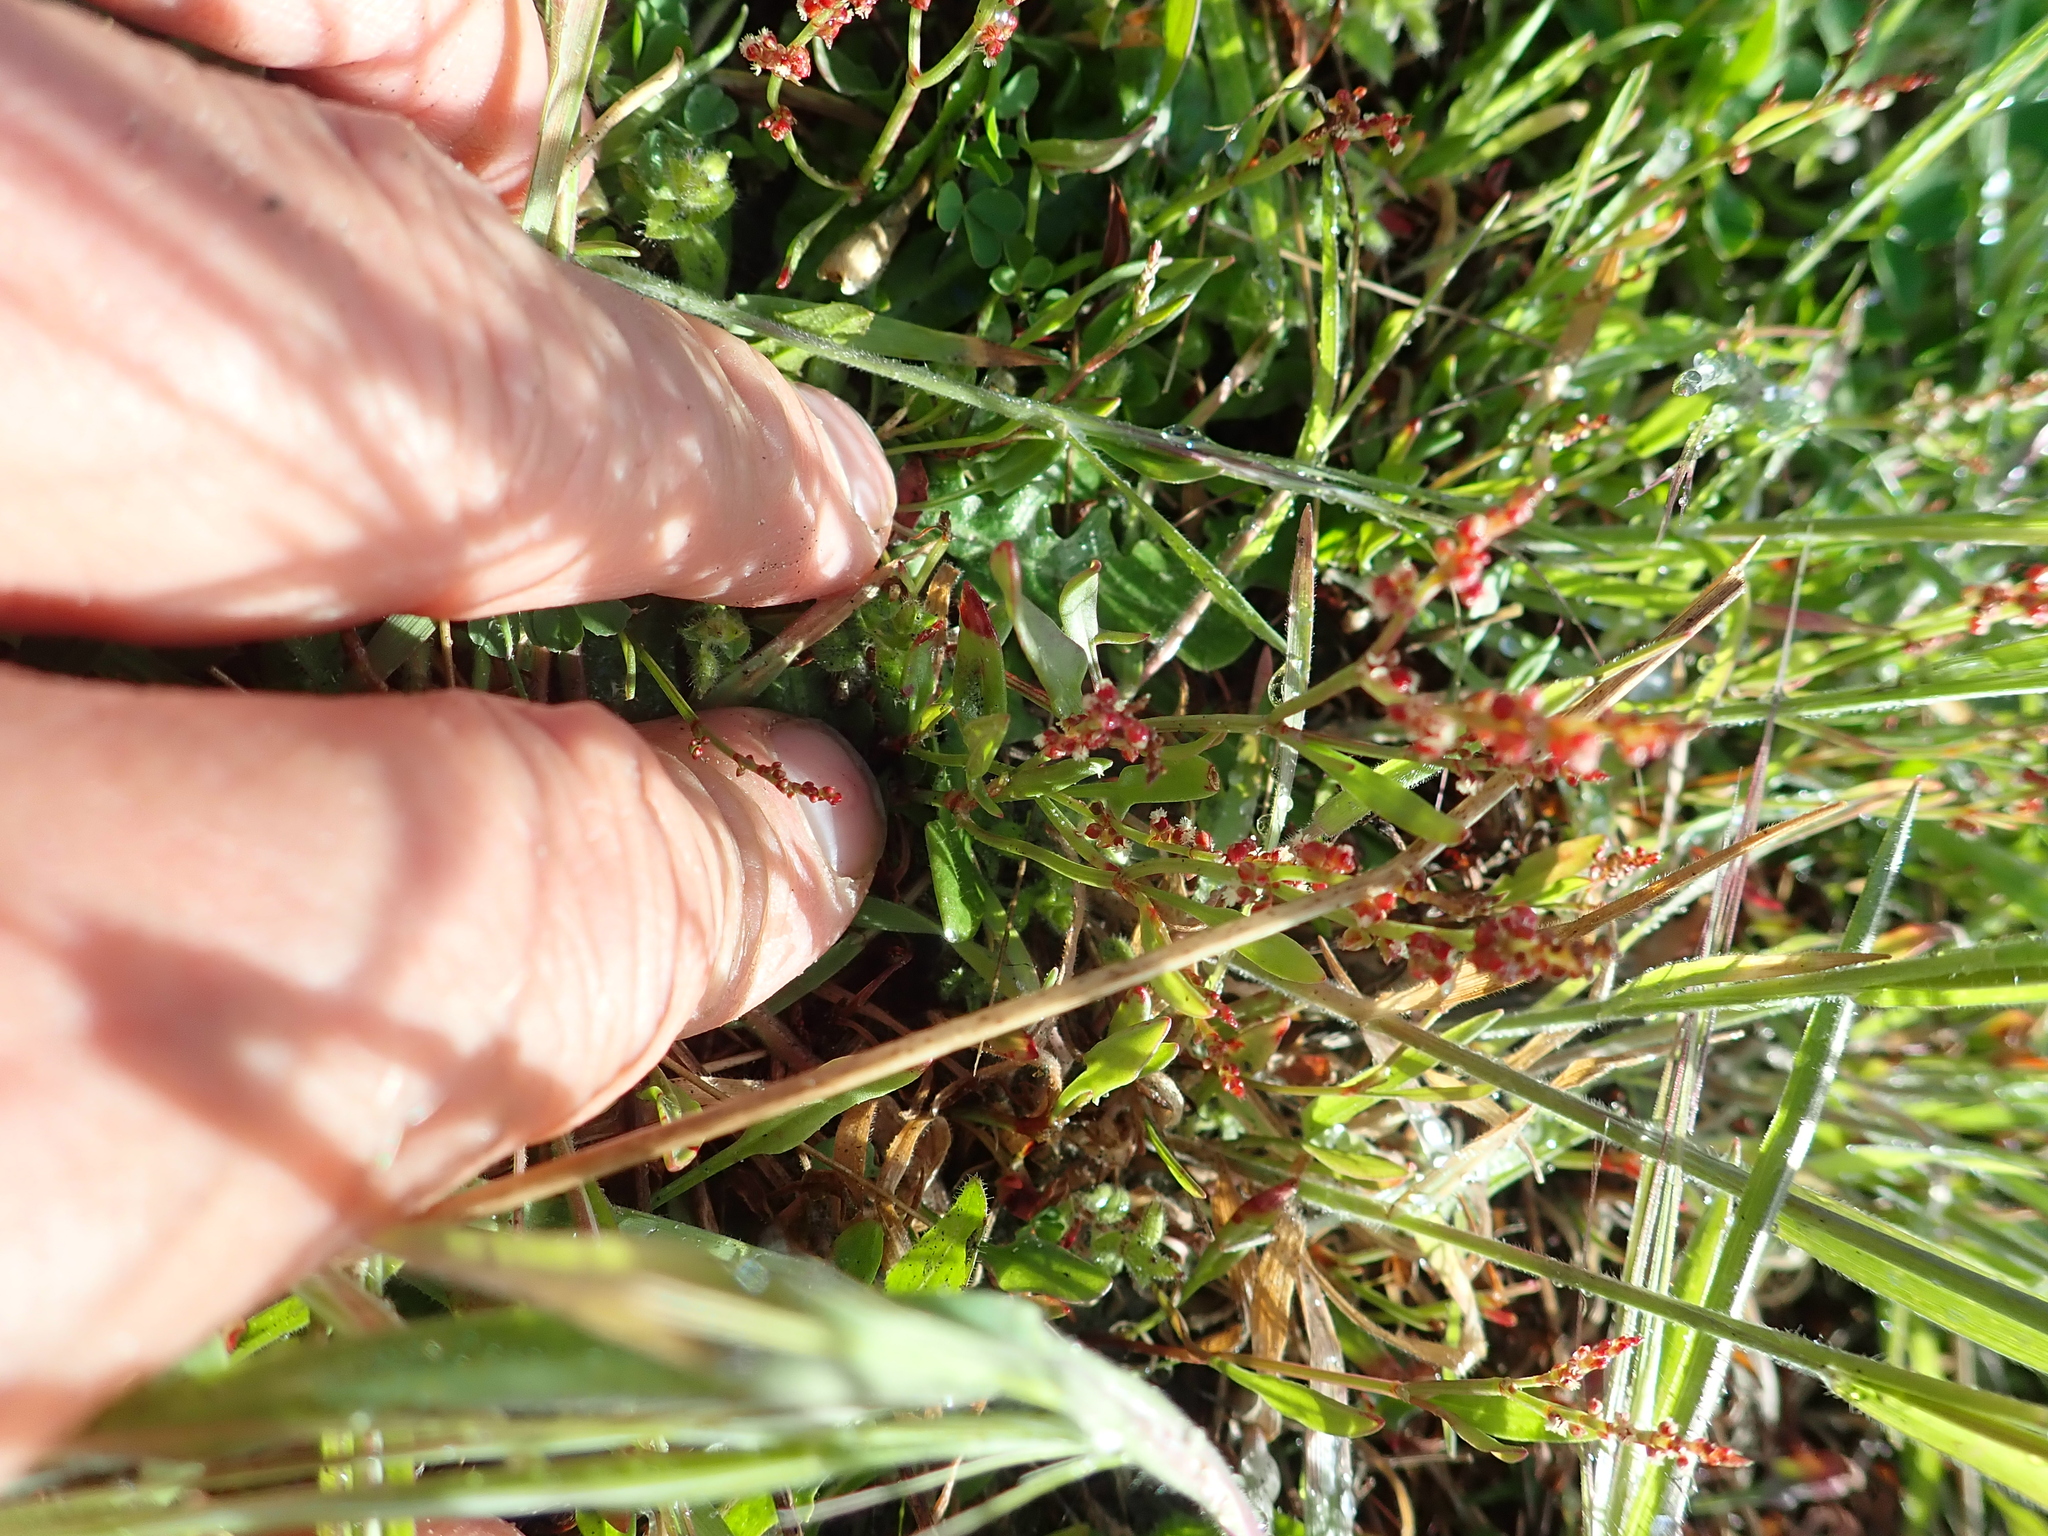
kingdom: Plantae
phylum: Tracheophyta
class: Magnoliopsida
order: Caryophyllales
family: Polygonaceae
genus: Rumex
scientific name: Rumex acetosella
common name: Common sheep sorrel
